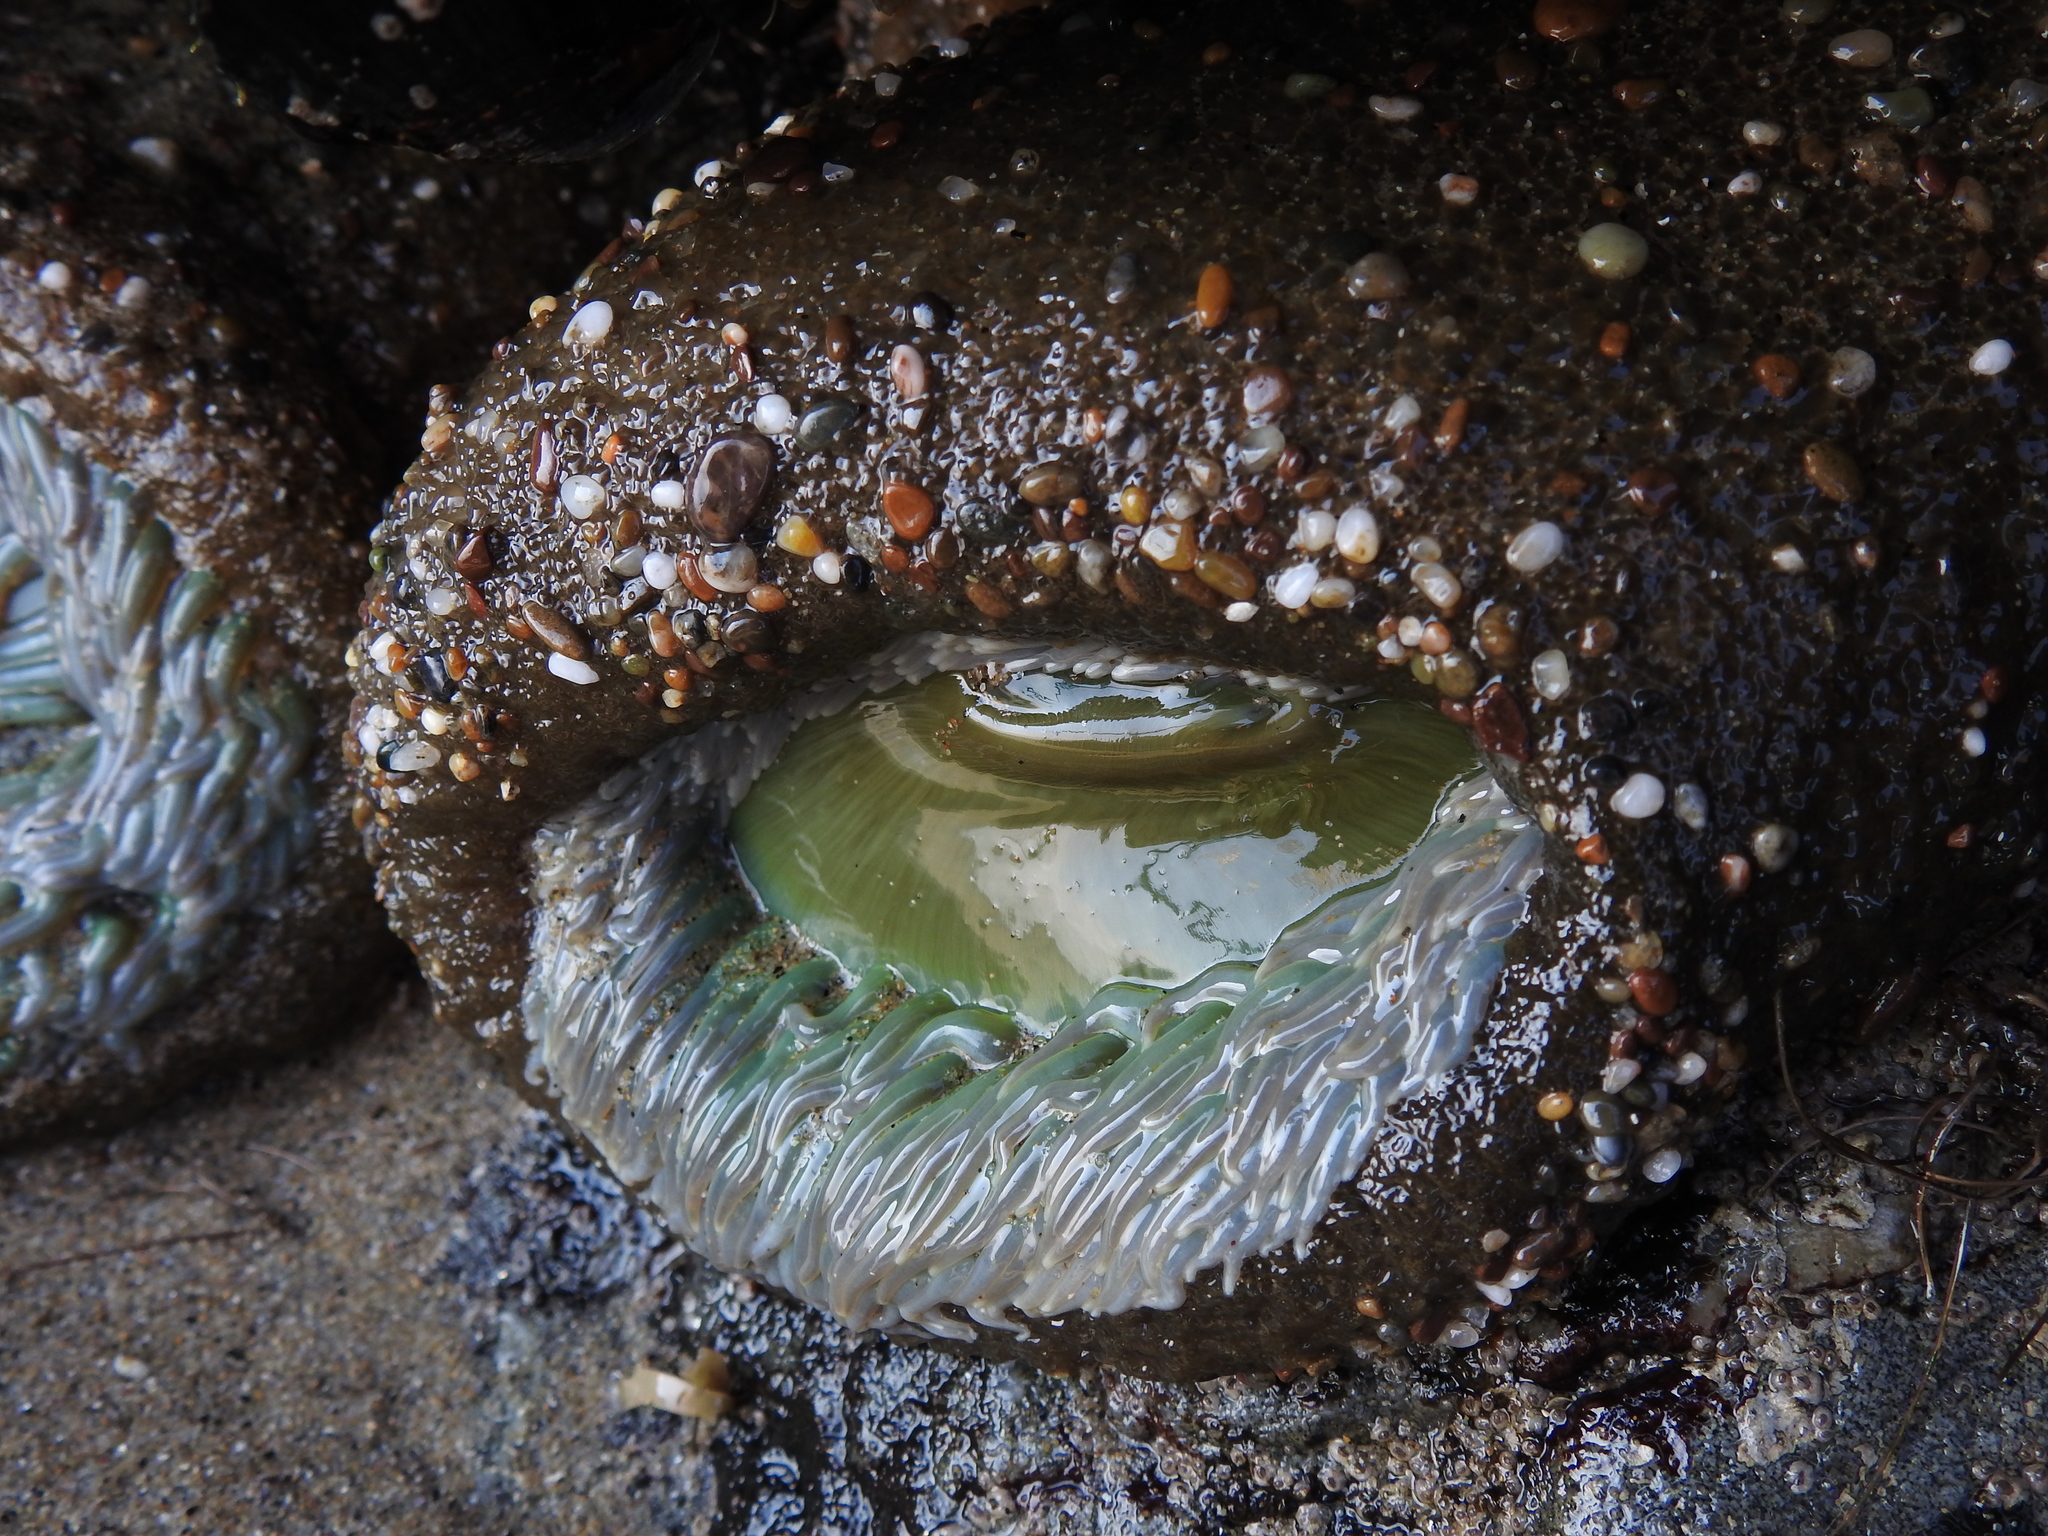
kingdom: Animalia
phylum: Cnidaria
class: Anthozoa
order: Actiniaria
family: Actiniidae
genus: Anthopleura
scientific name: Anthopleura xanthogrammica
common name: Giant green anemone
